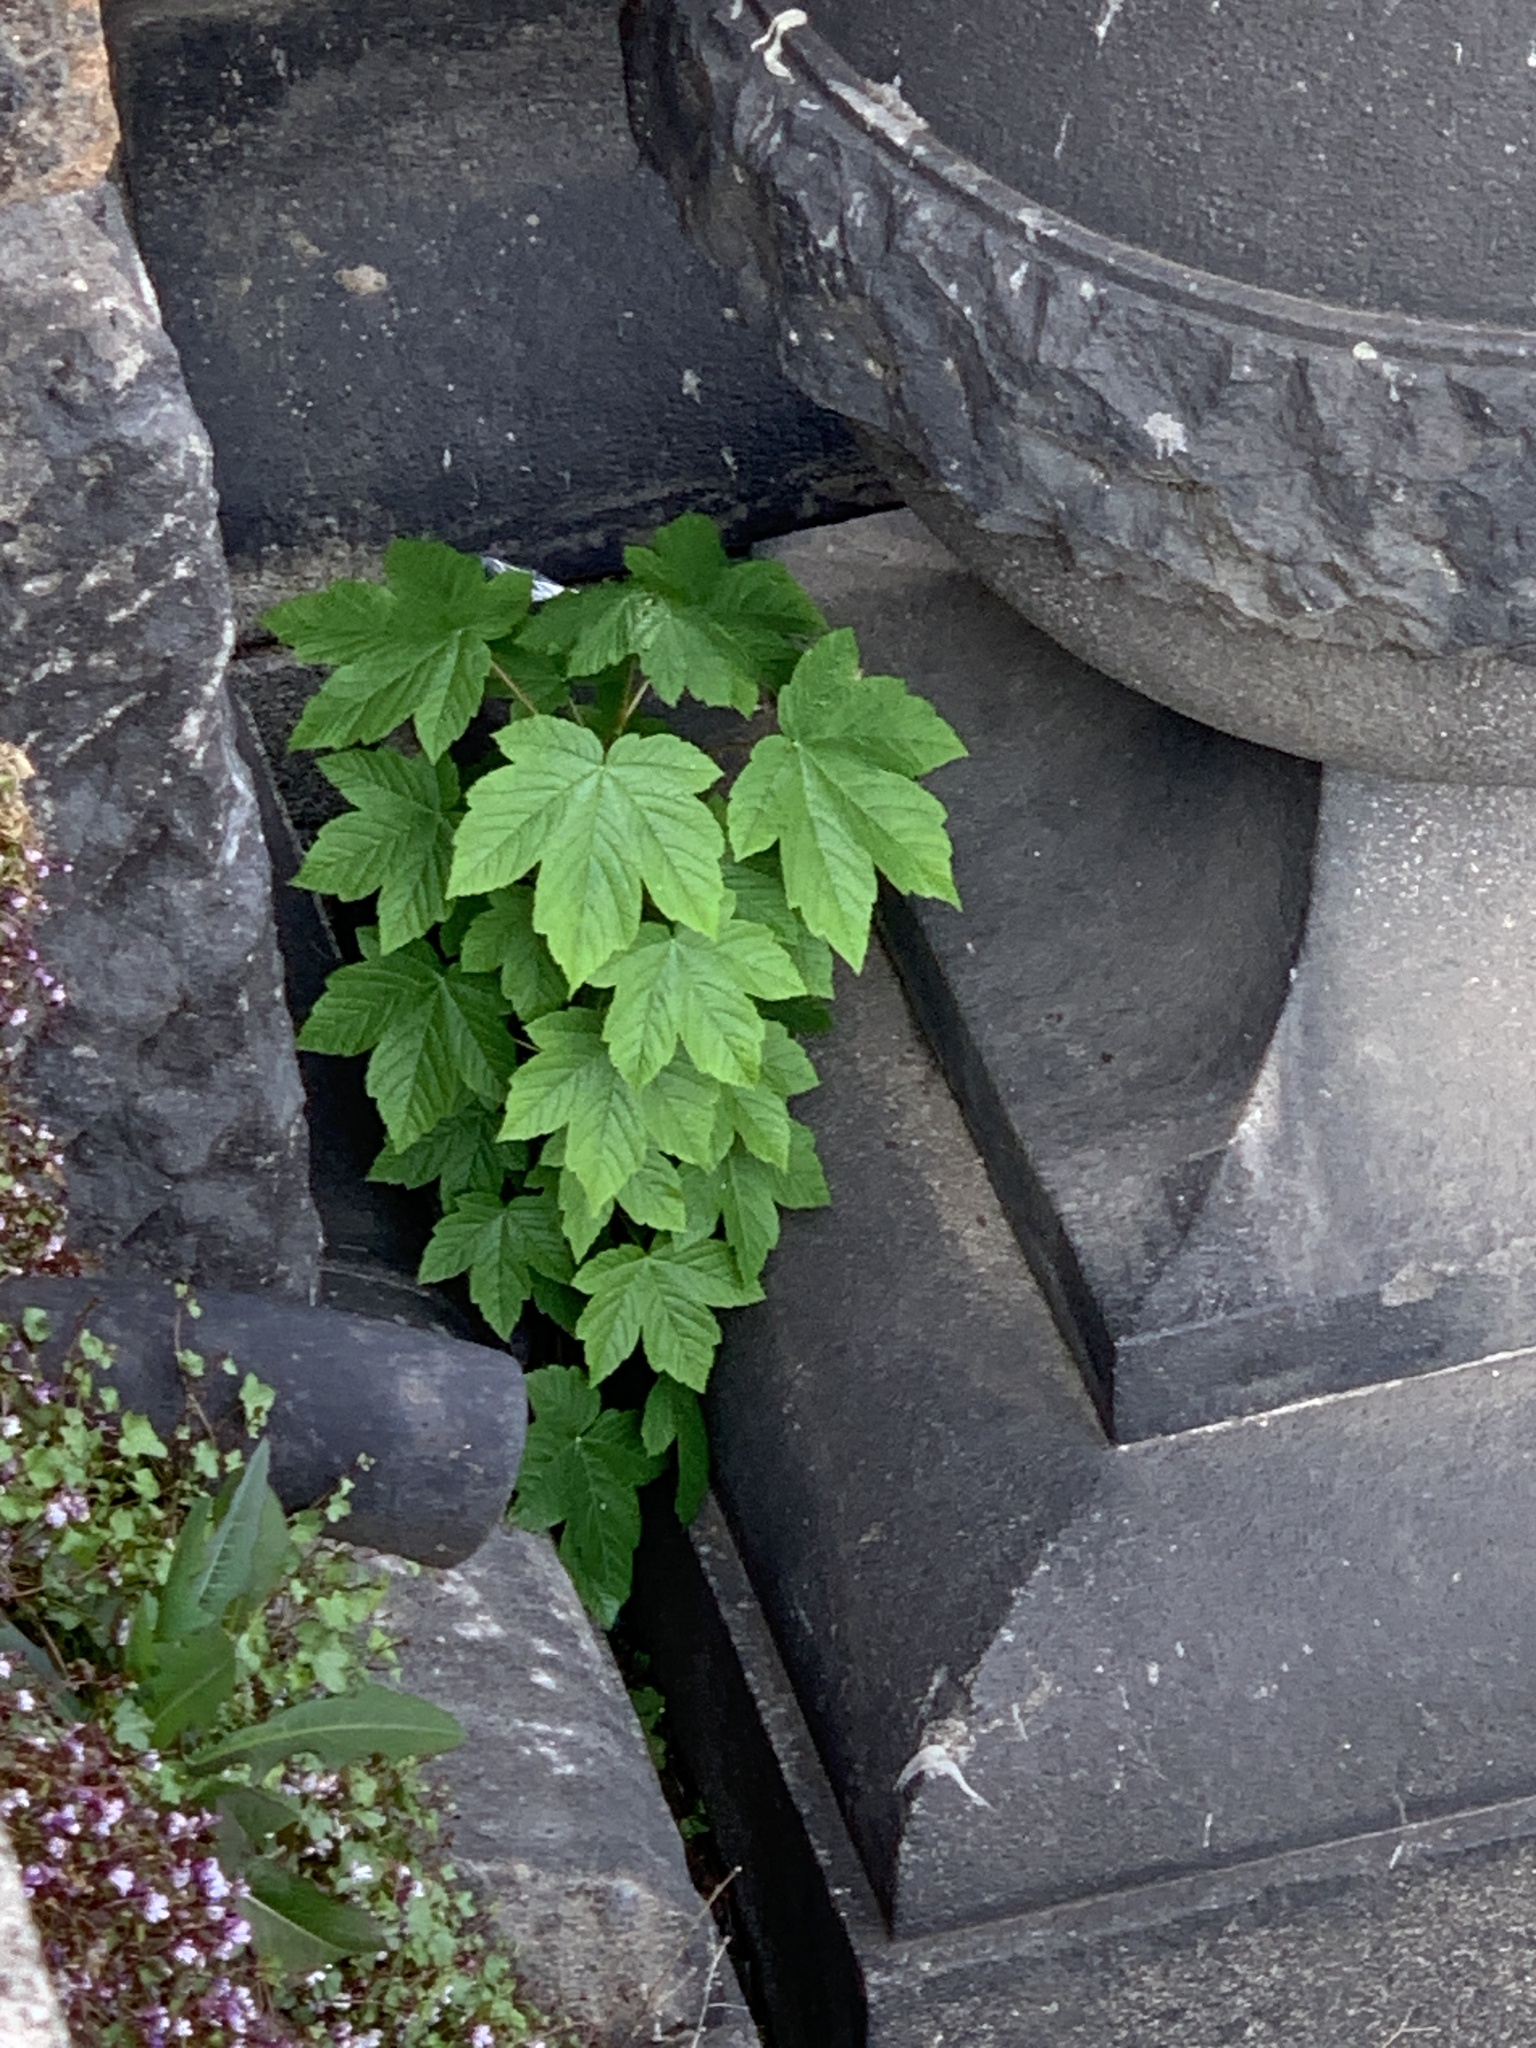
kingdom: Plantae
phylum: Tracheophyta
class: Magnoliopsida
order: Sapindales
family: Sapindaceae
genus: Acer
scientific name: Acer pseudoplatanus
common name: Sycamore
